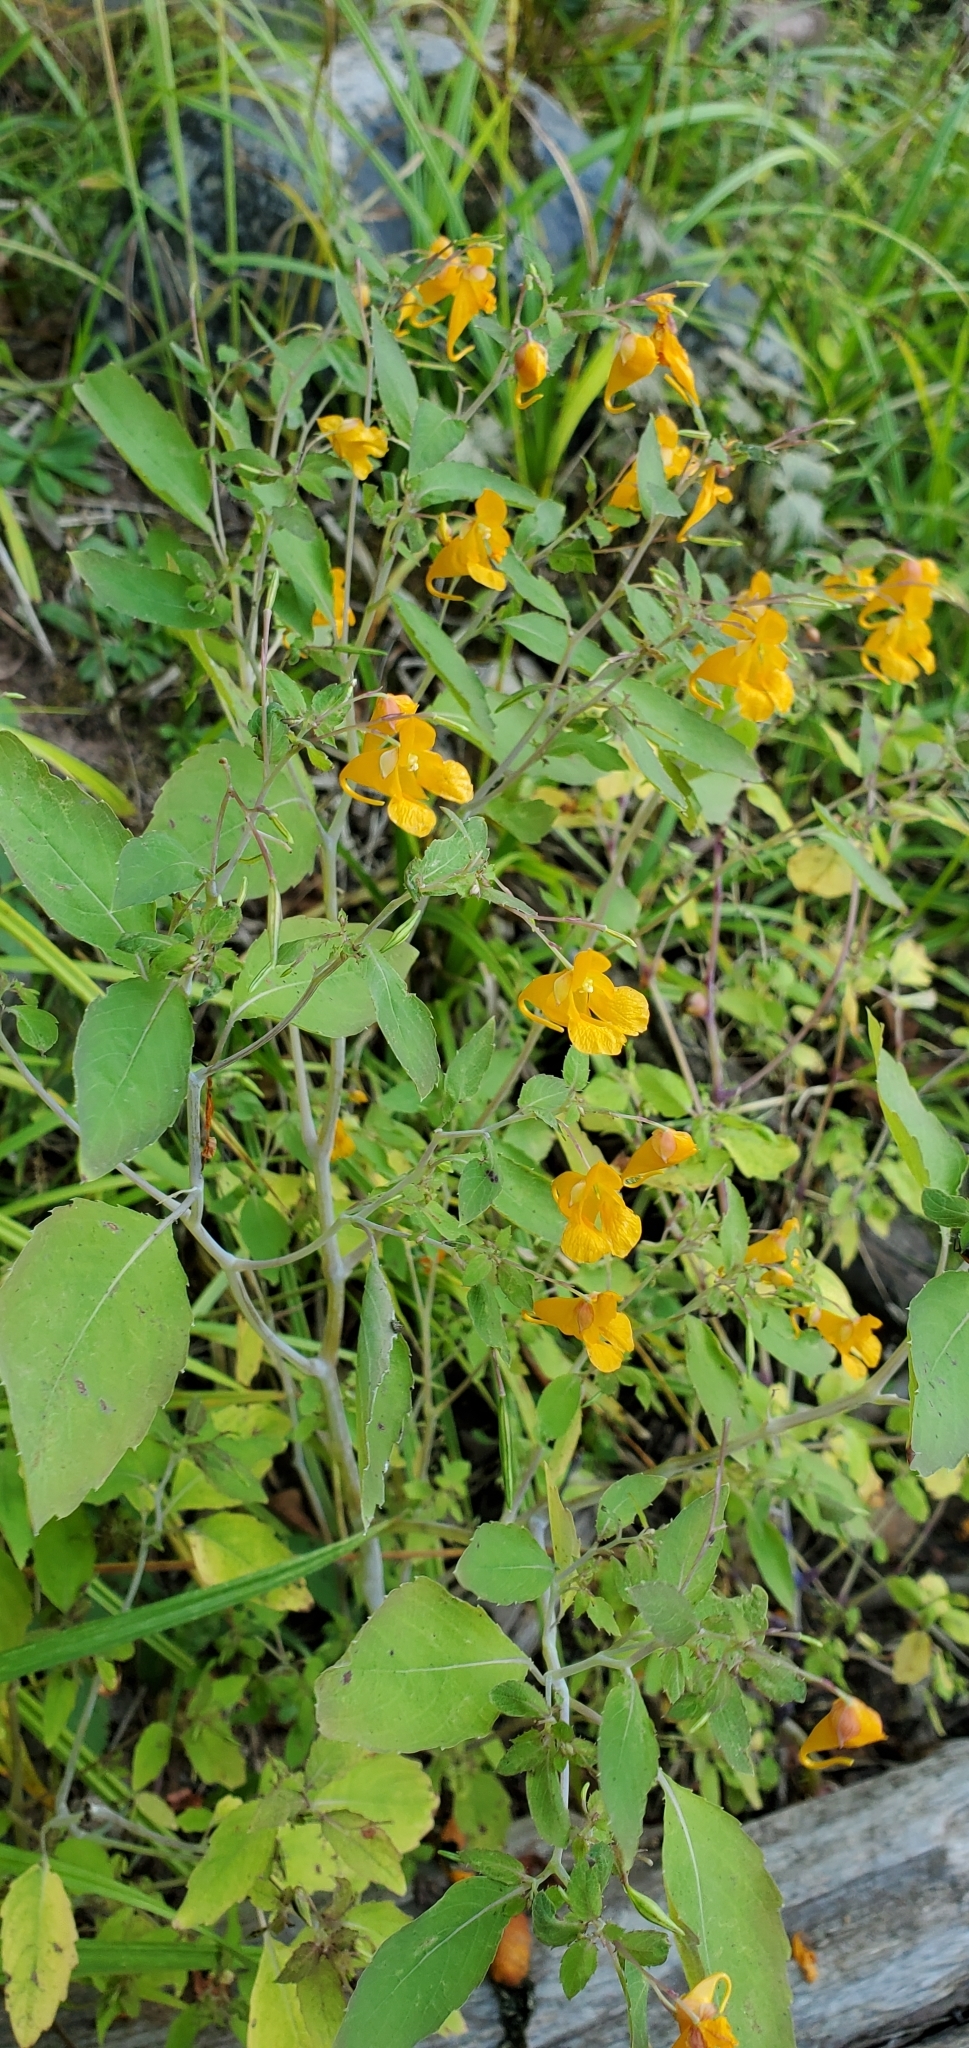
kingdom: Plantae
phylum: Tracheophyta
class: Magnoliopsida
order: Ericales
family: Balsaminaceae
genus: Impatiens
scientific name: Impatiens capensis
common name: Orange balsam
